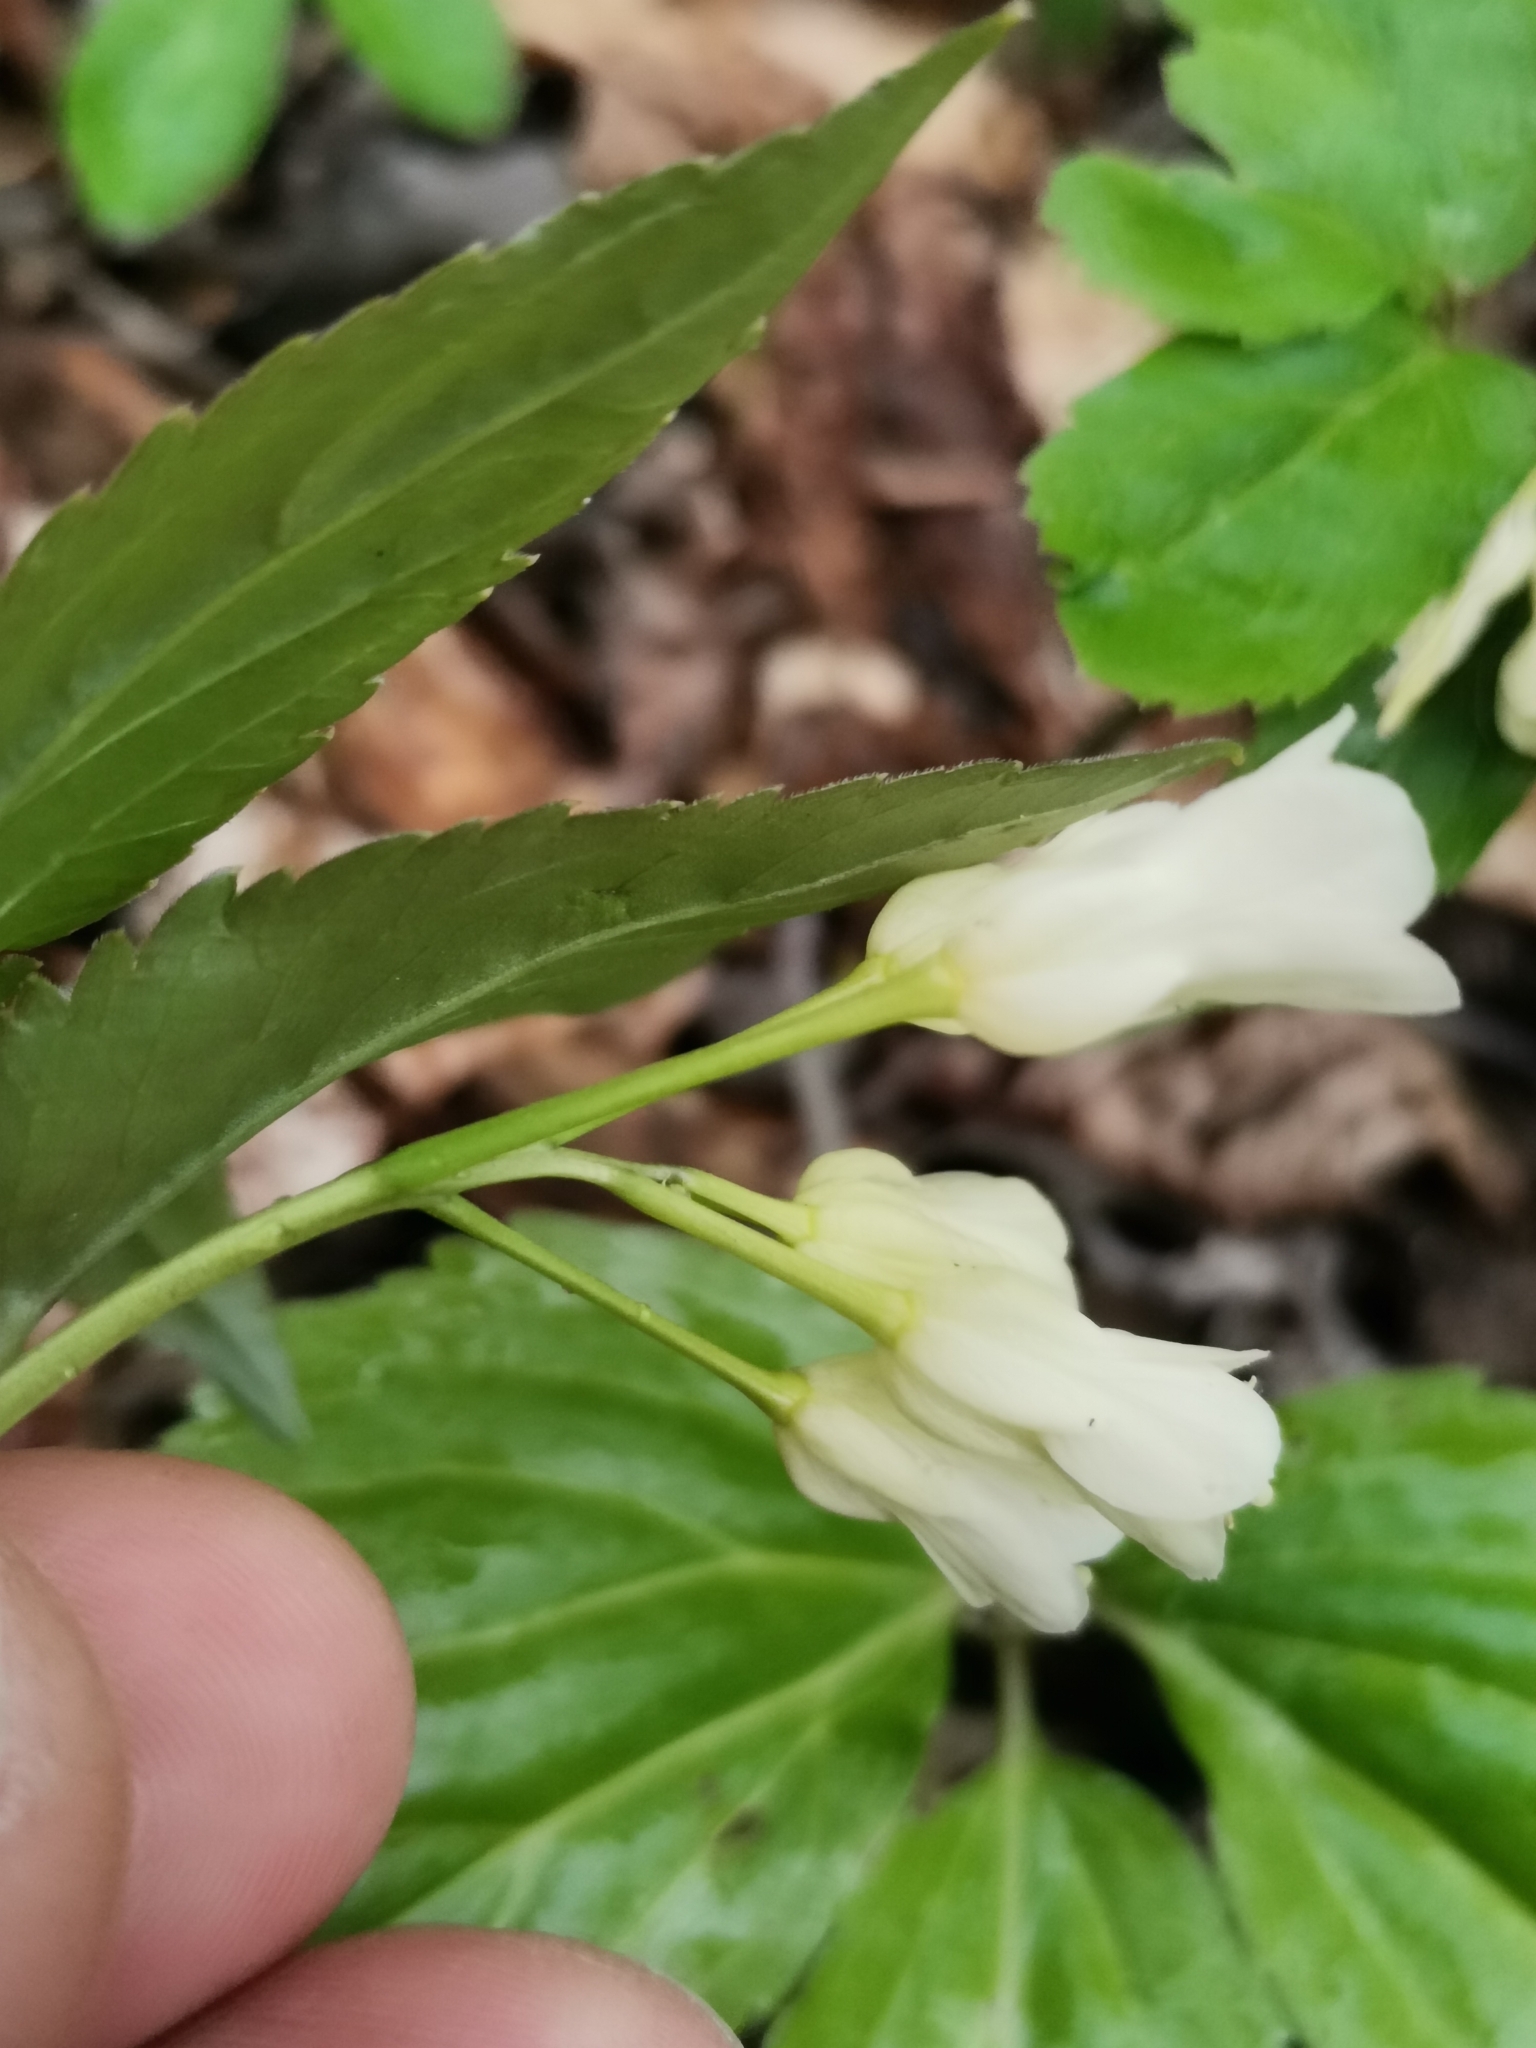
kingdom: Plantae
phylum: Tracheophyta
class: Magnoliopsida
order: Brassicales
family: Brassicaceae
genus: Cardamine
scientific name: Cardamine enneaphyllos
